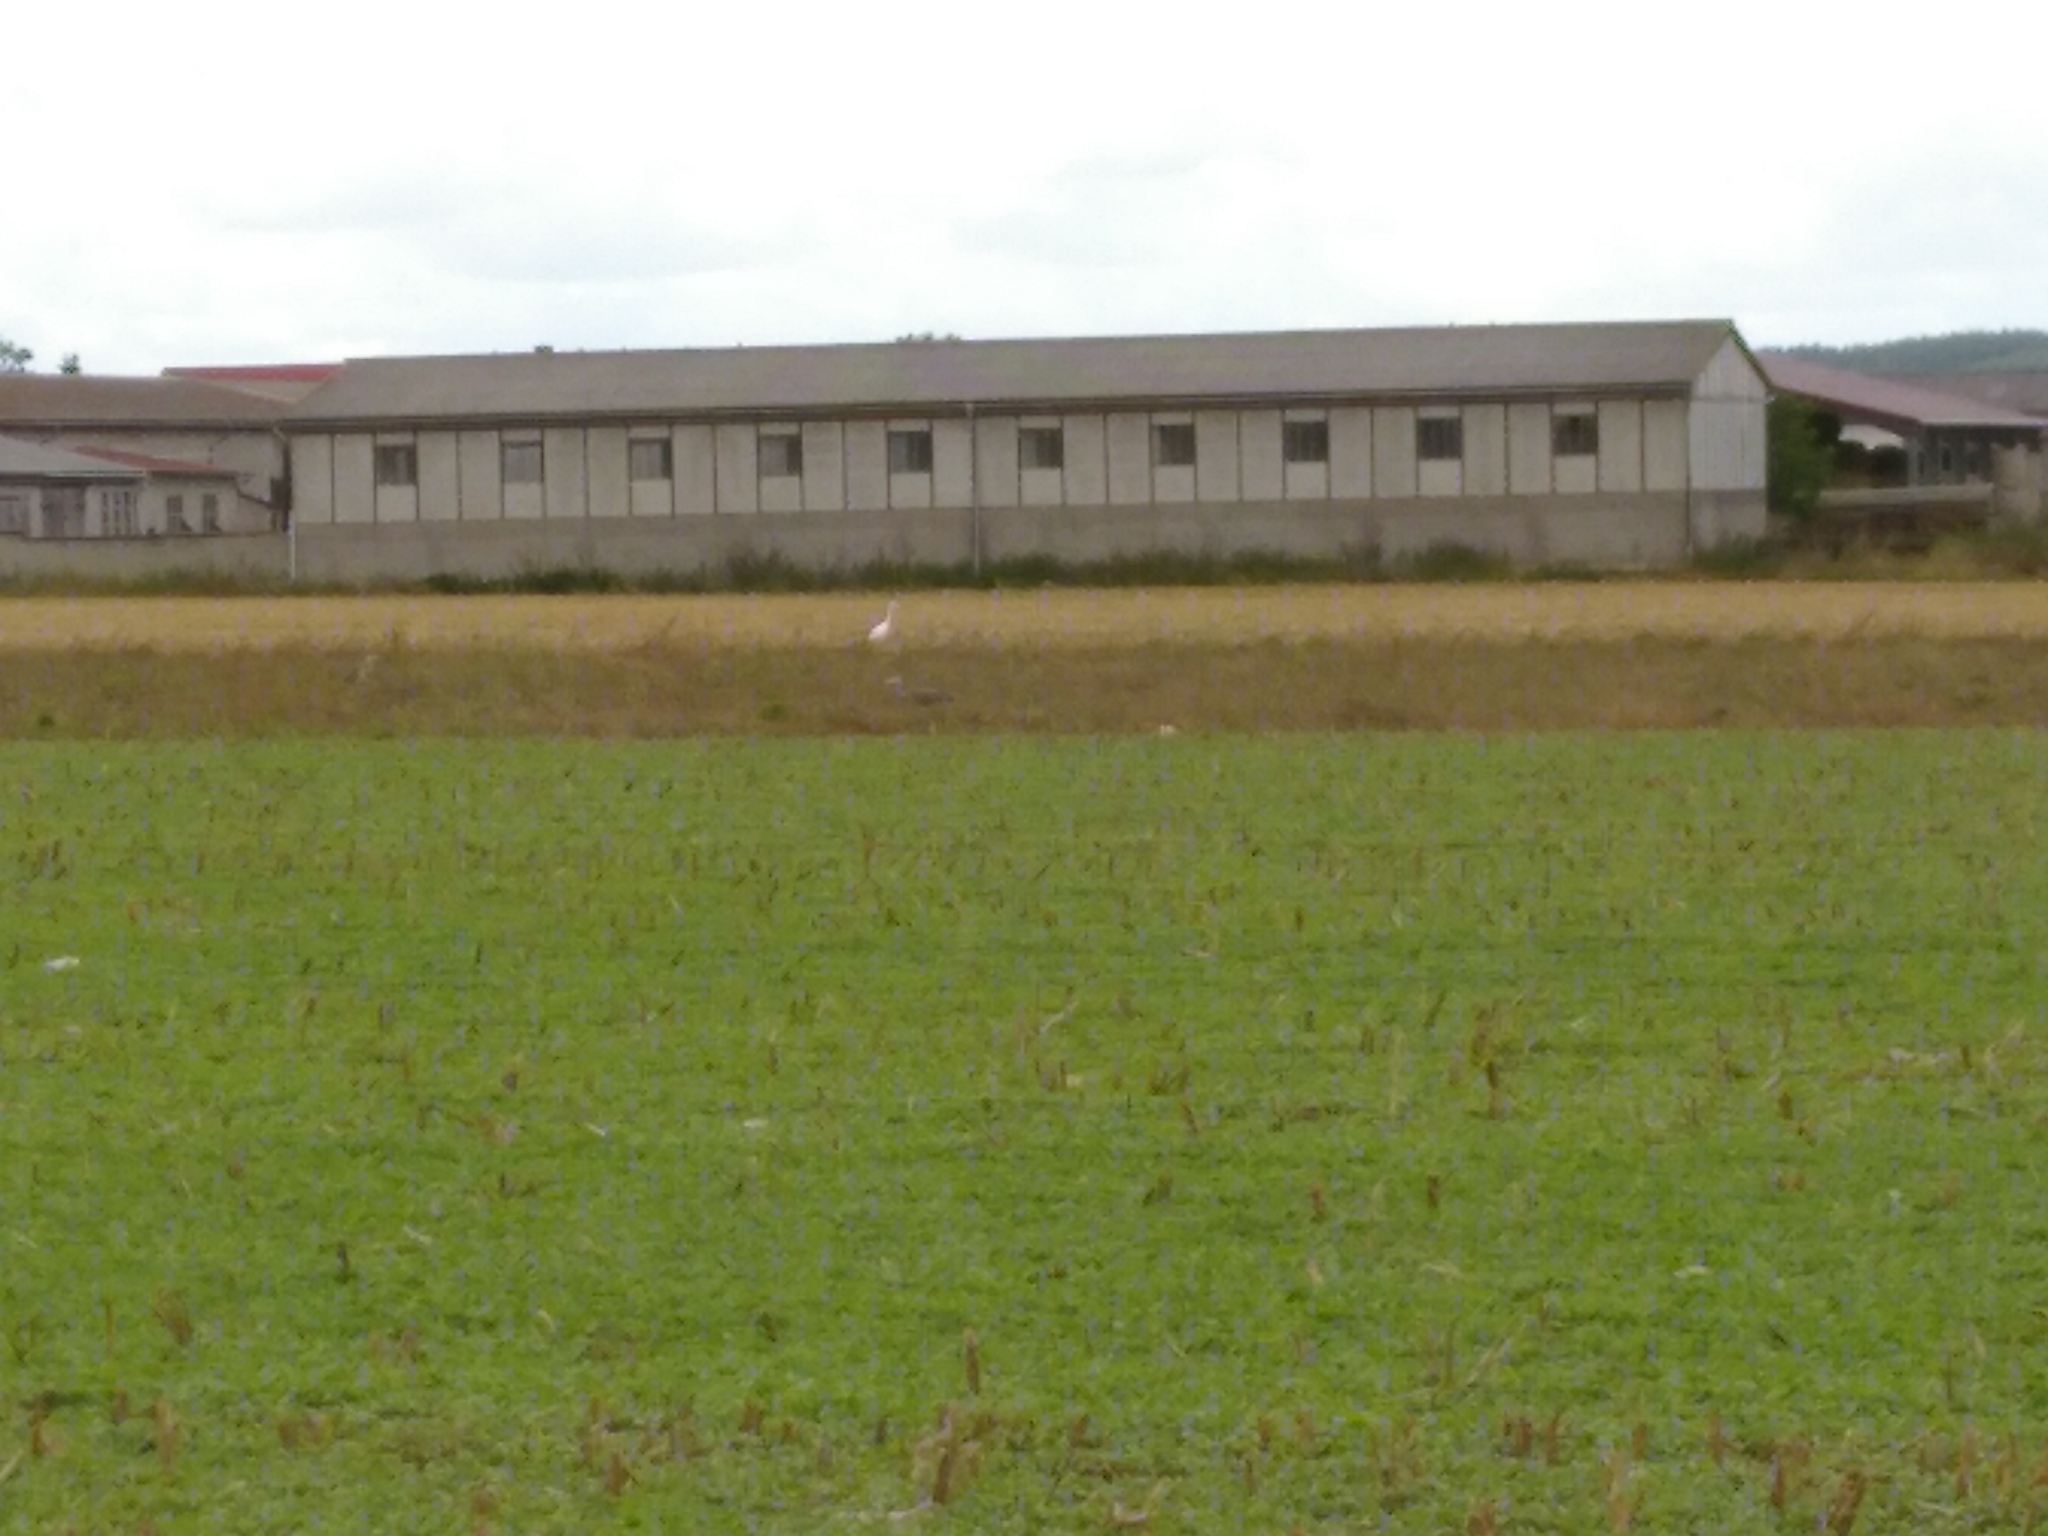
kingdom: Animalia
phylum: Chordata
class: Aves
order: Pelecaniformes
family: Ardeidae
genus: Ardea
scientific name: Ardea alba
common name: Great egret
